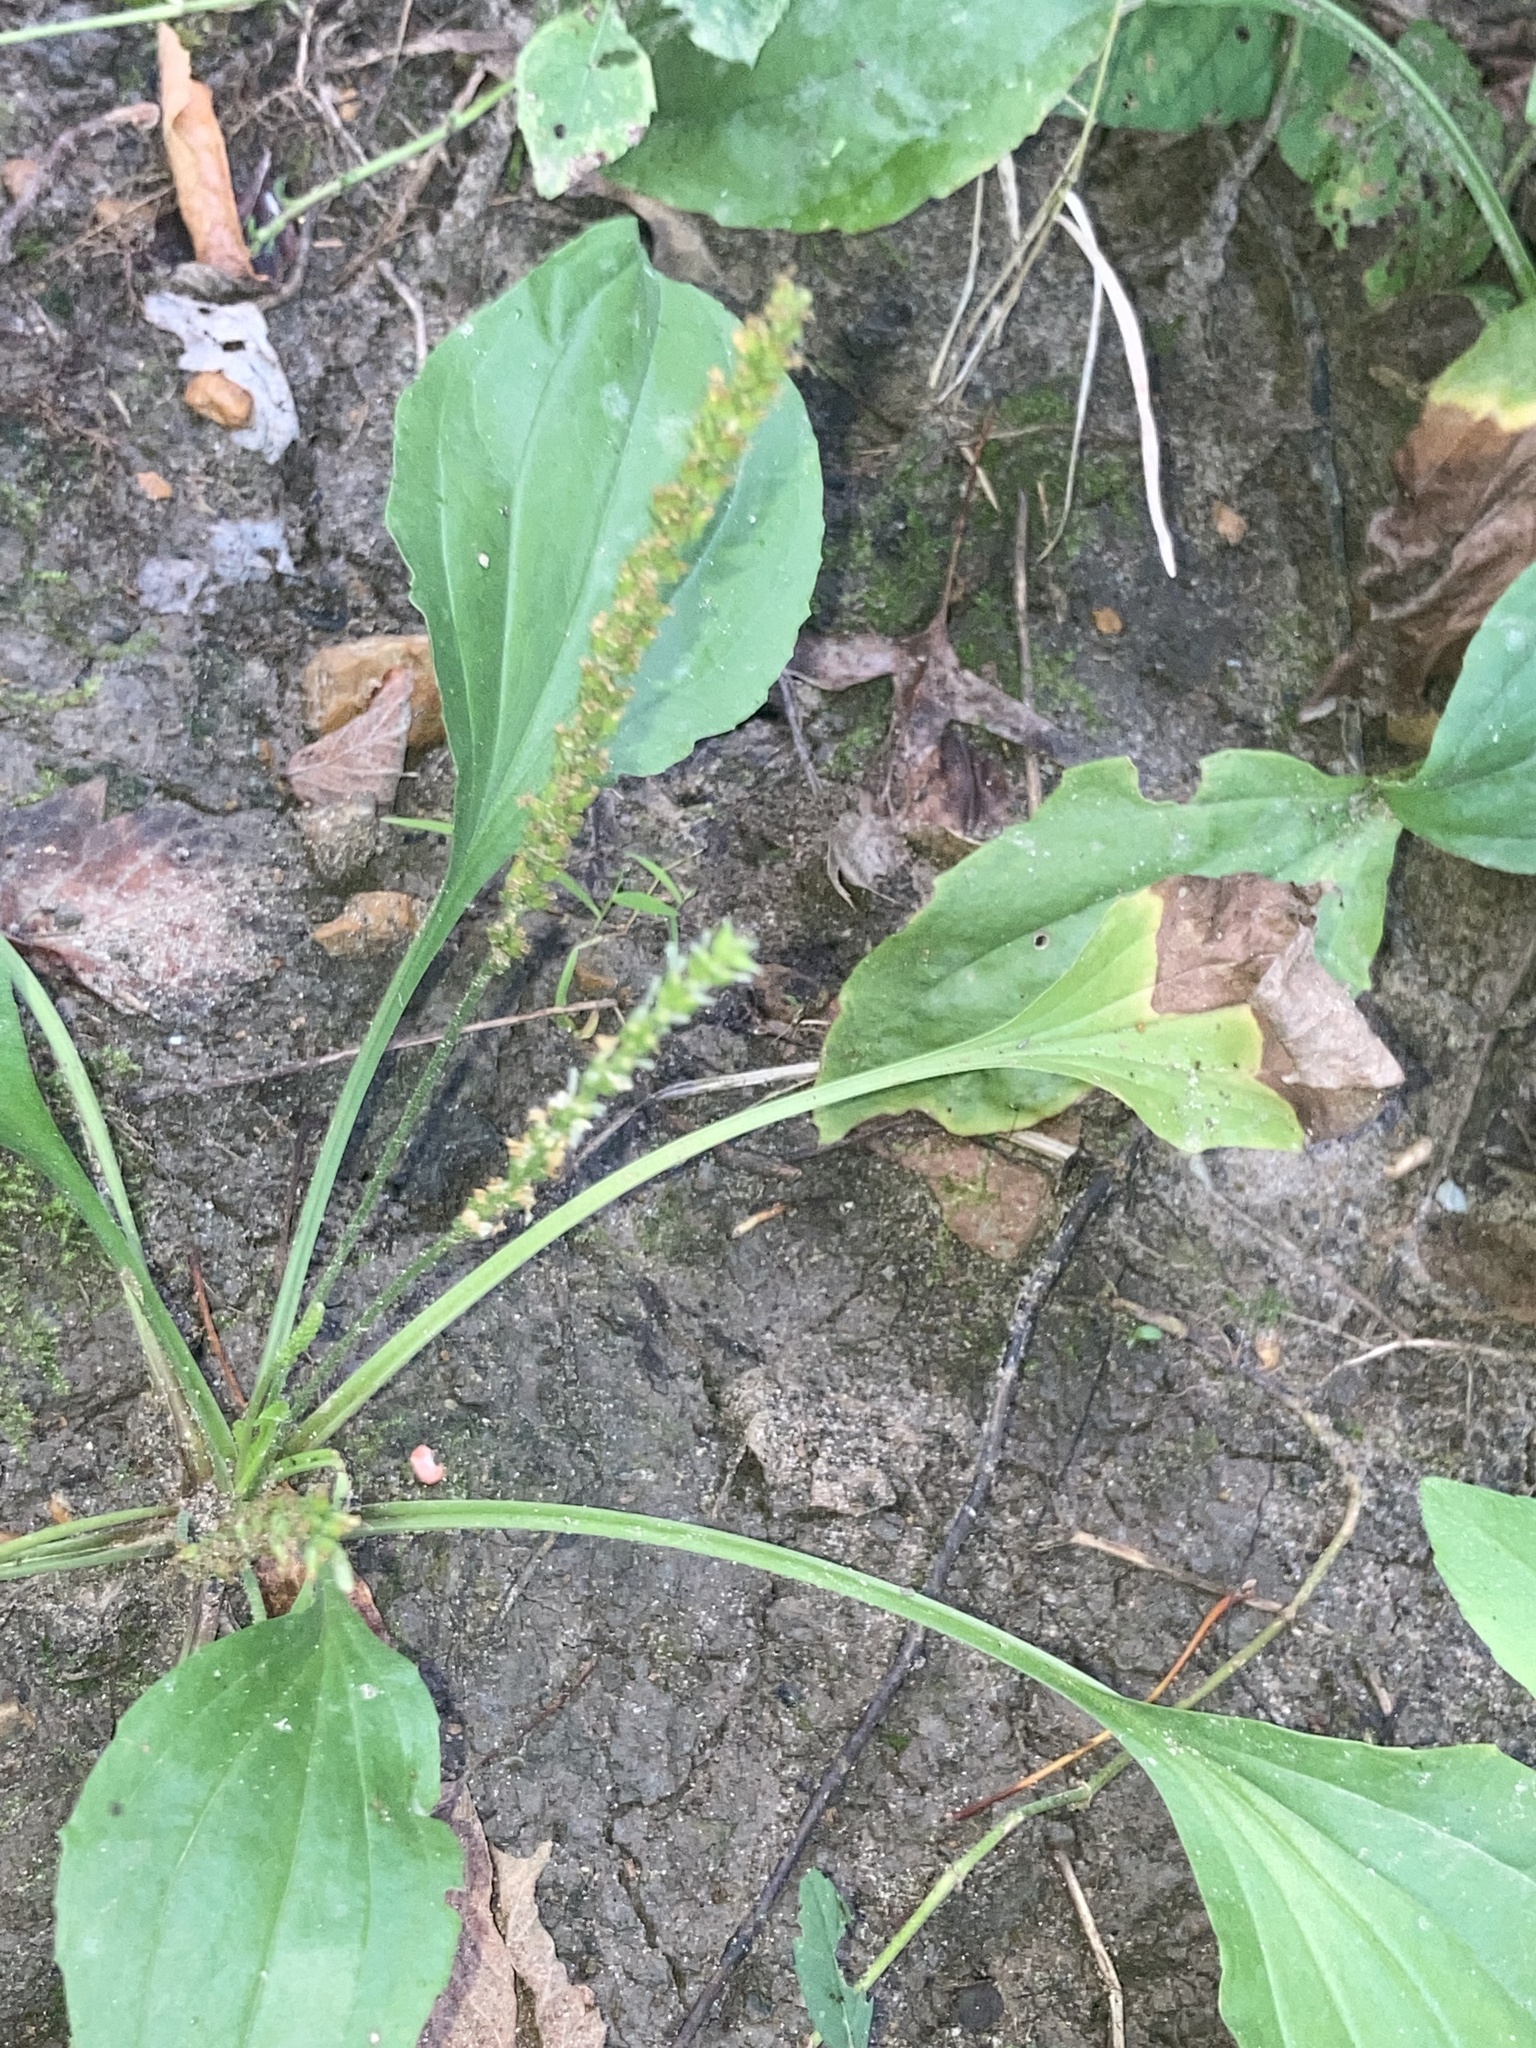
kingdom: Plantae
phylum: Tracheophyta
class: Magnoliopsida
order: Lamiales
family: Plantaginaceae
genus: Plantago
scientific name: Plantago rugelii
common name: American plantain
